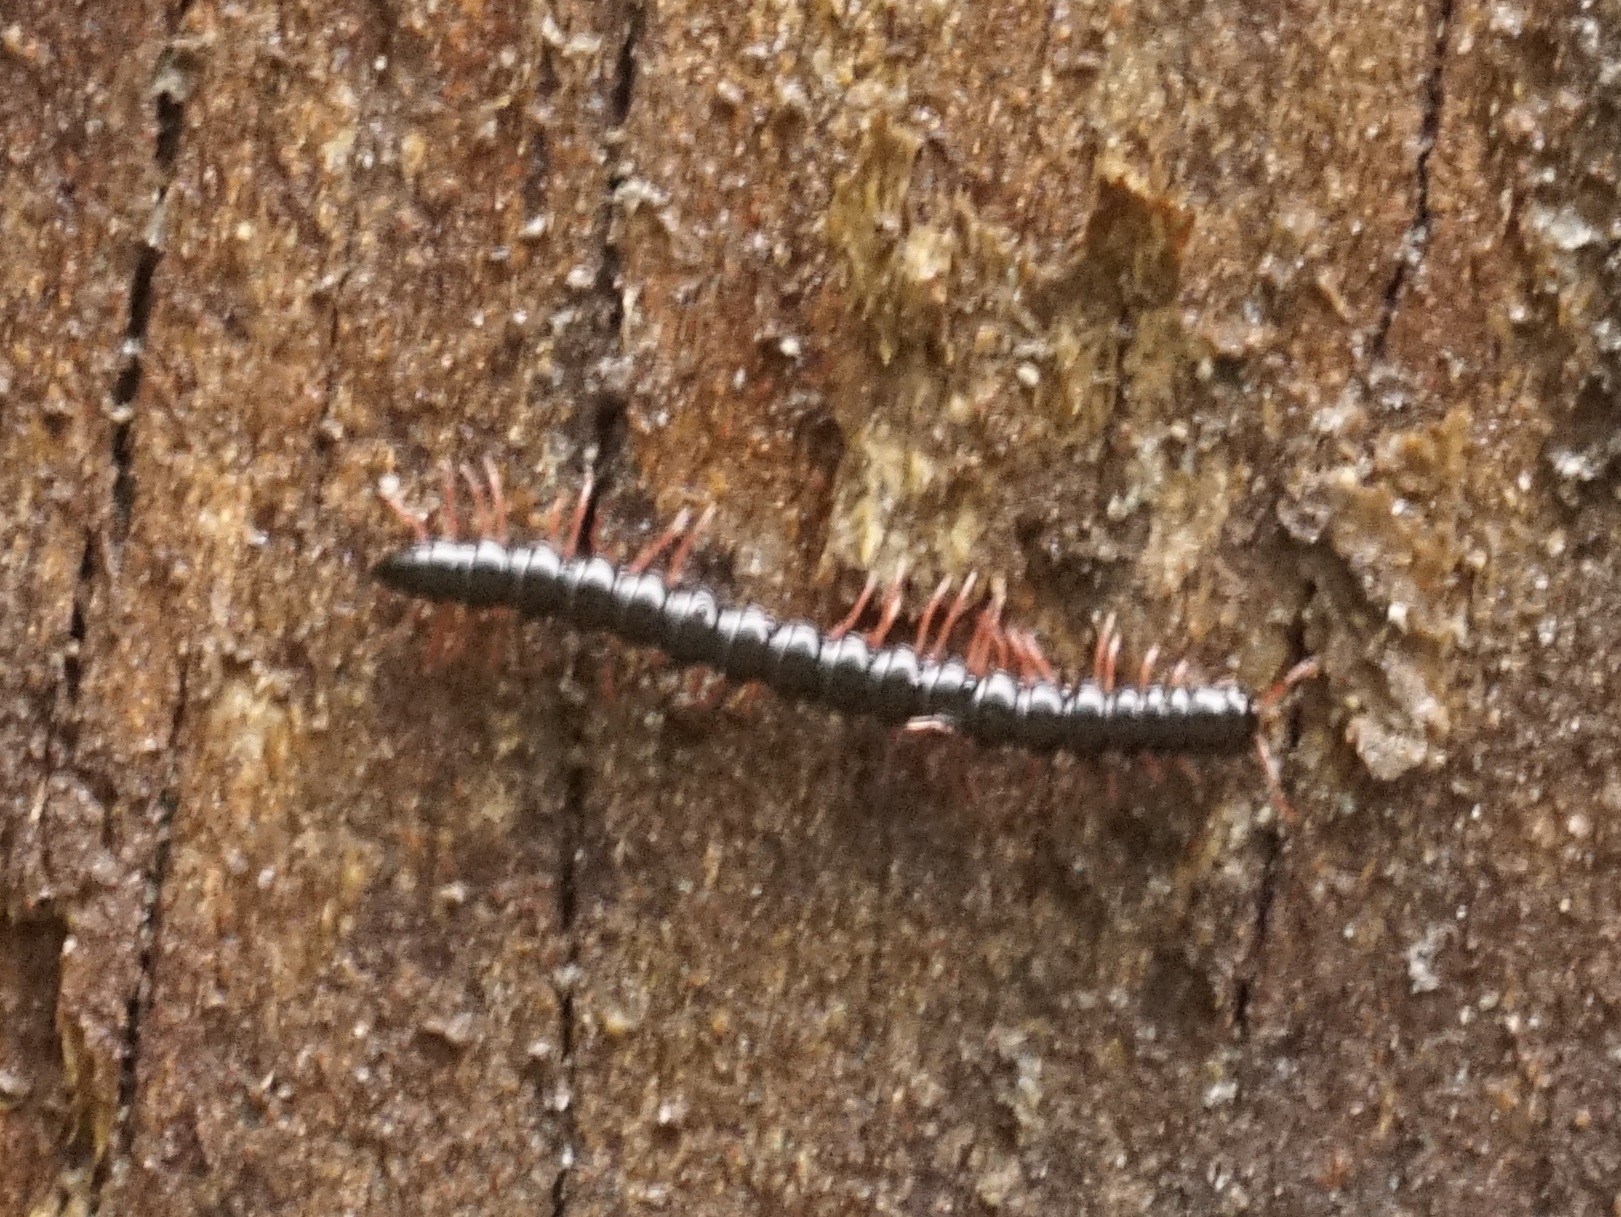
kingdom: Animalia
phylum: Arthropoda
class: Diplopoda
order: Polydesmida
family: Paradoxosomatidae
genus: Heterocladosoma
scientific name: Heterocladosoma
